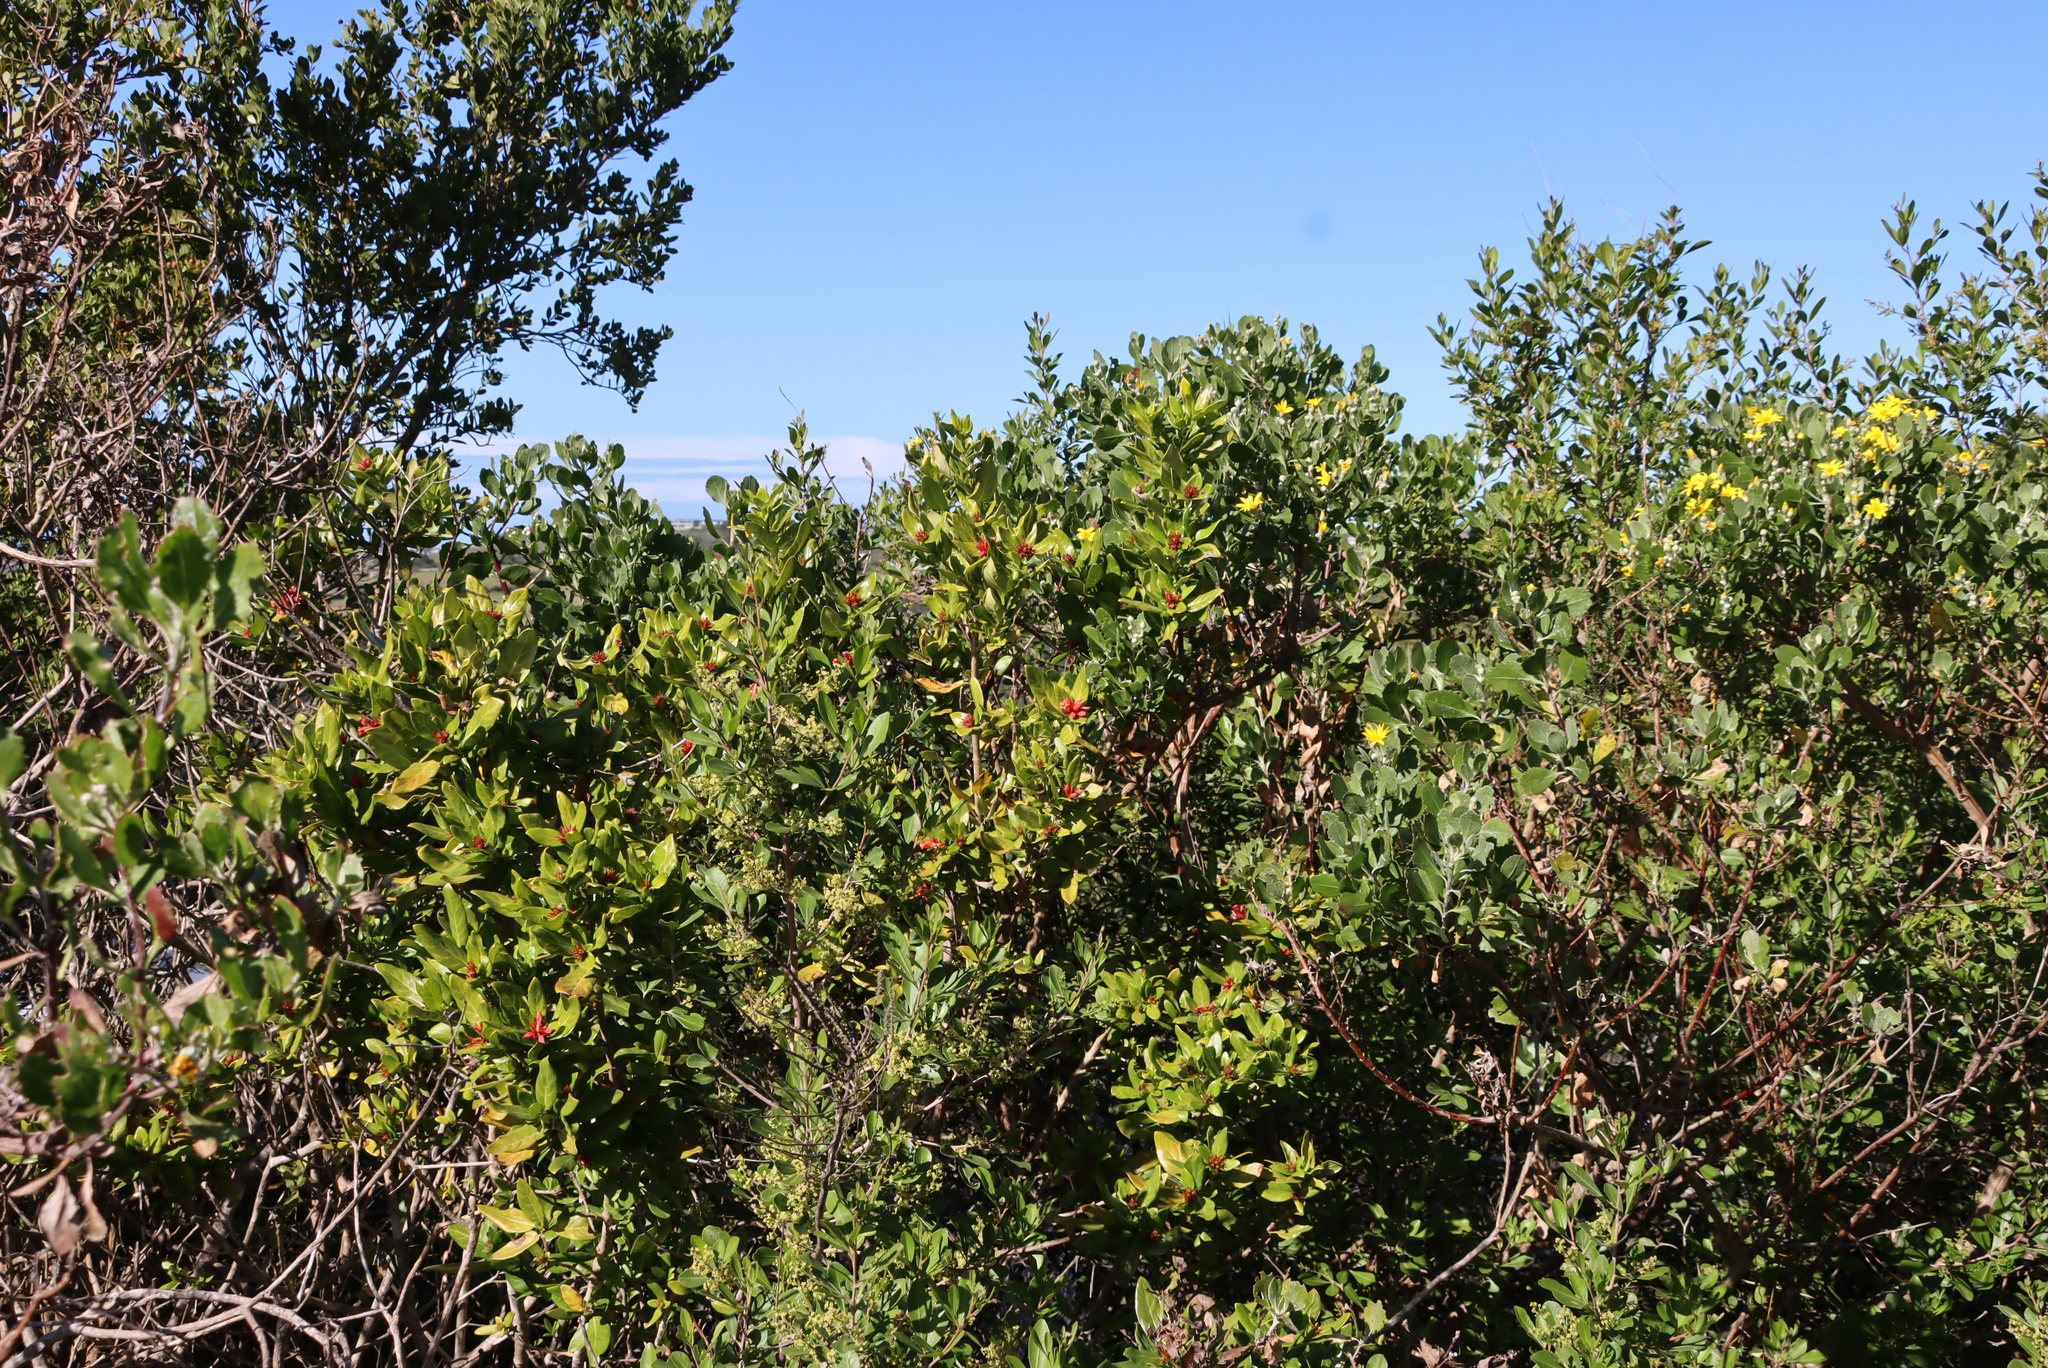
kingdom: Plantae
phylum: Tracheophyta
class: Magnoliopsida
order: Gentianales
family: Rubiaceae
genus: Burchellia
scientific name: Burchellia bubalina
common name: Wild pomegranate
